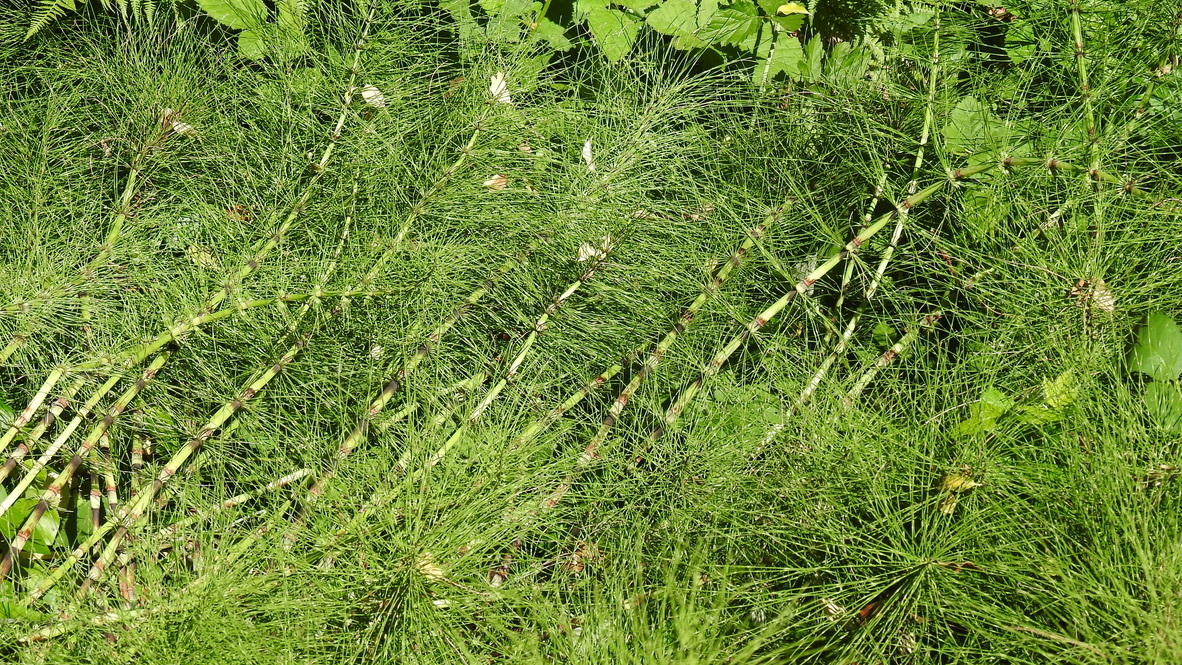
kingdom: Plantae
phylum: Tracheophyta
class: Polypodiopsida
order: Equisetales
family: Equisetaceae
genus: Equisetum
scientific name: Equisetum telmateia
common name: Great horsetail
